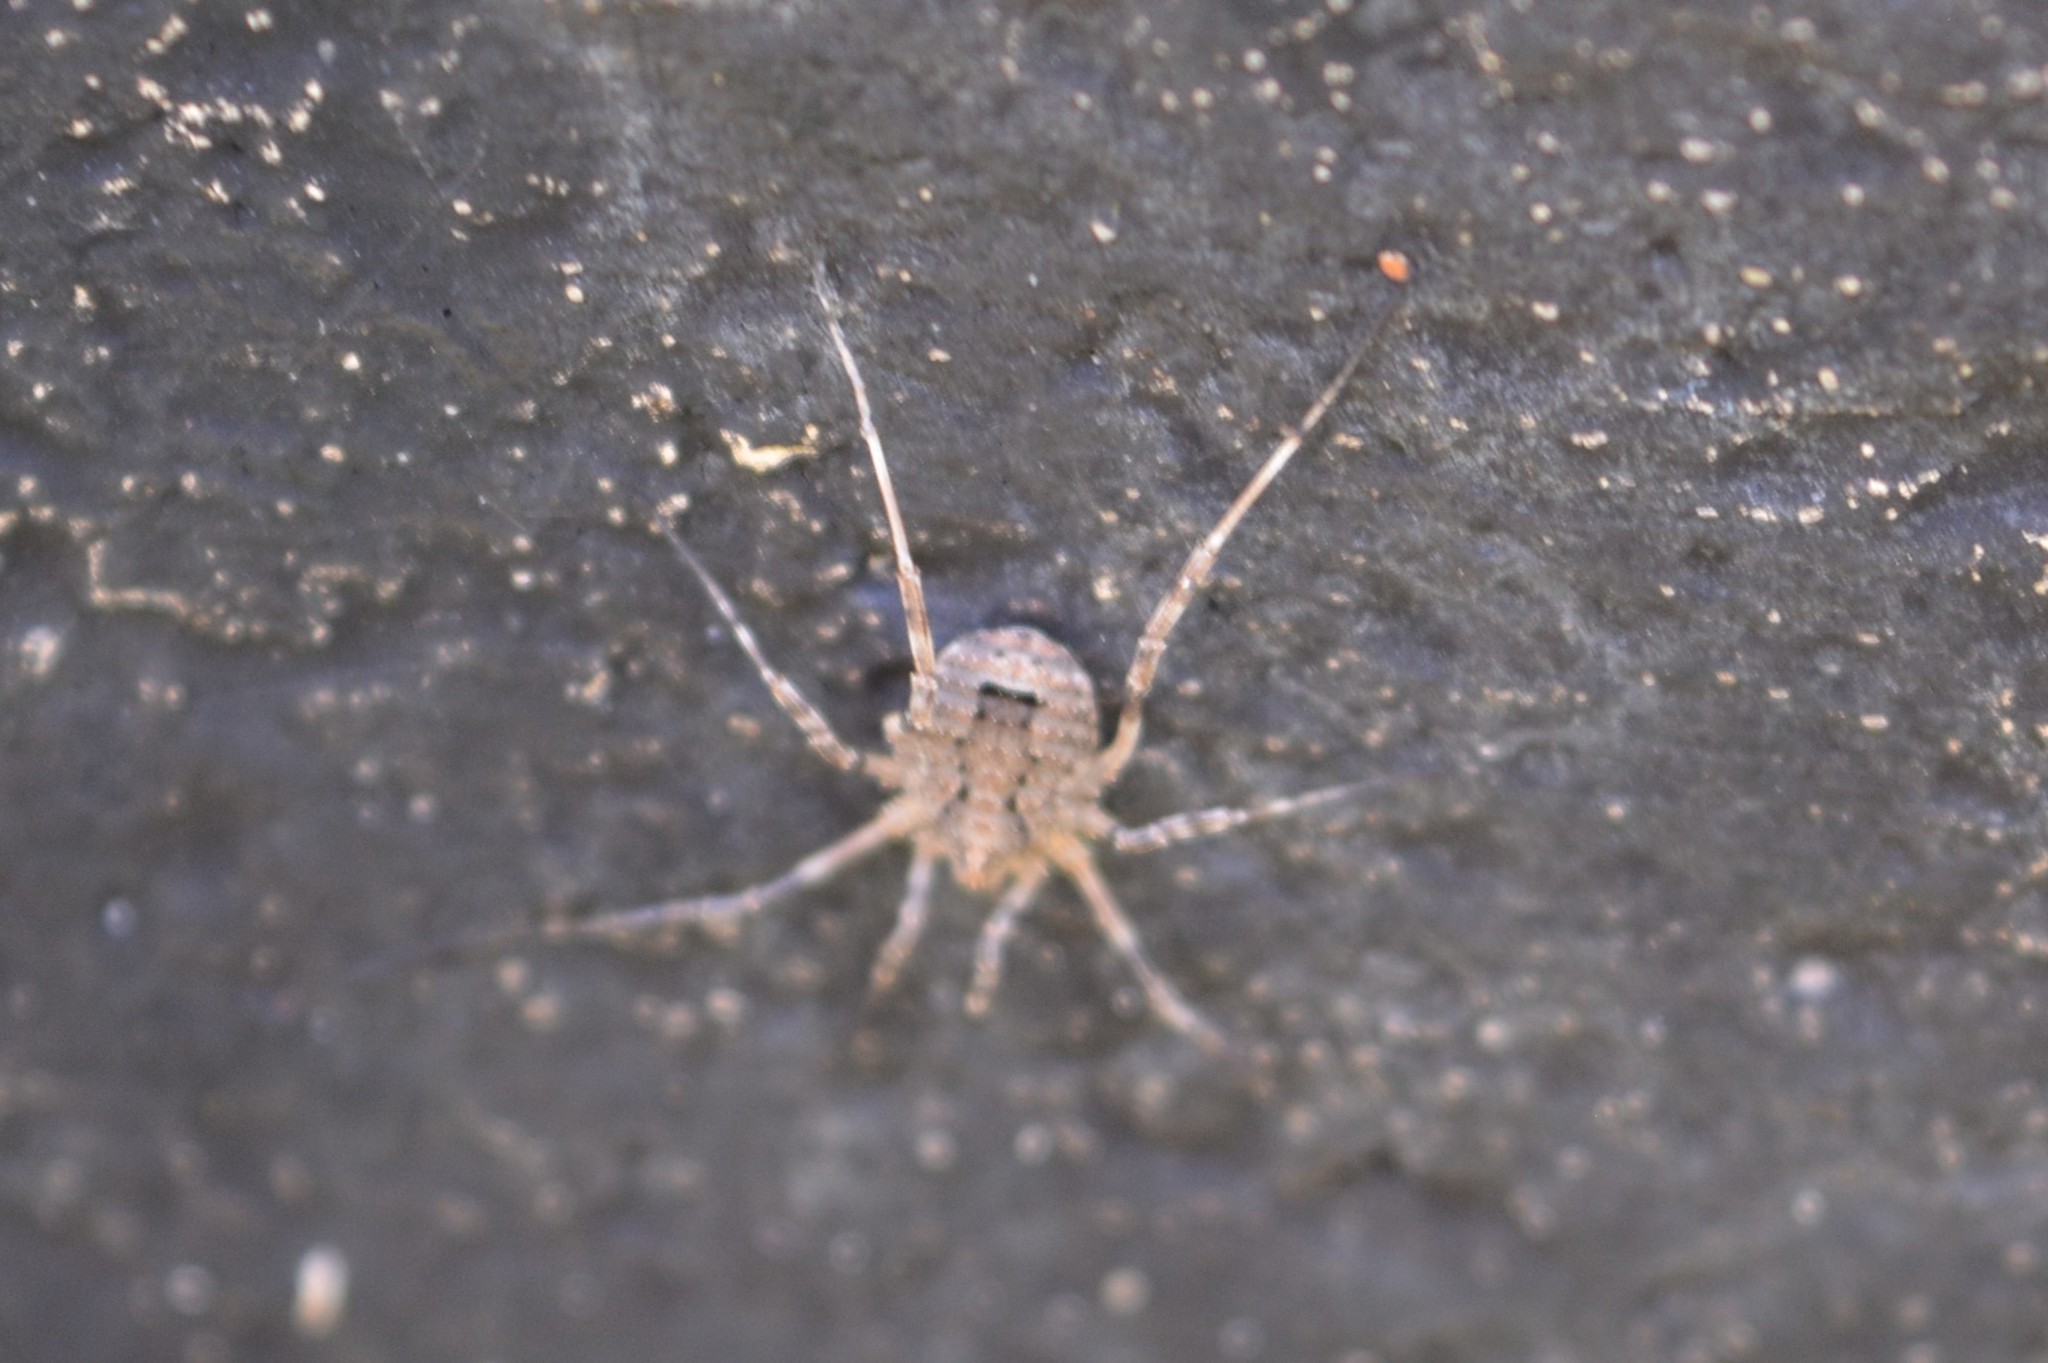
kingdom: Animalia
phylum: Arthropoda
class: Arachnida
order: Opiliones
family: Phalangiidae
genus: Odiellus
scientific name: Odiellus spinosus
